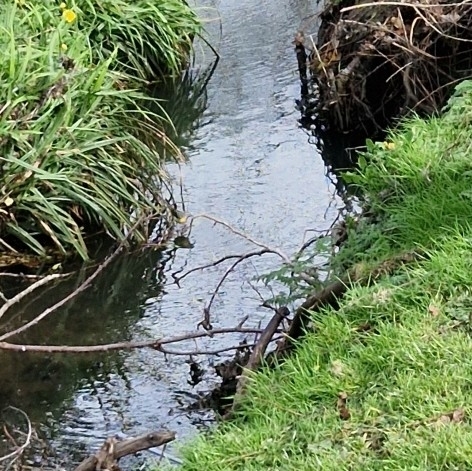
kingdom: Animalia
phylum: Chordata
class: Aves
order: Passeriformes
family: Motacillidae
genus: Motacilla
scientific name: Motacilla cinerea
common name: Grey wagtail
